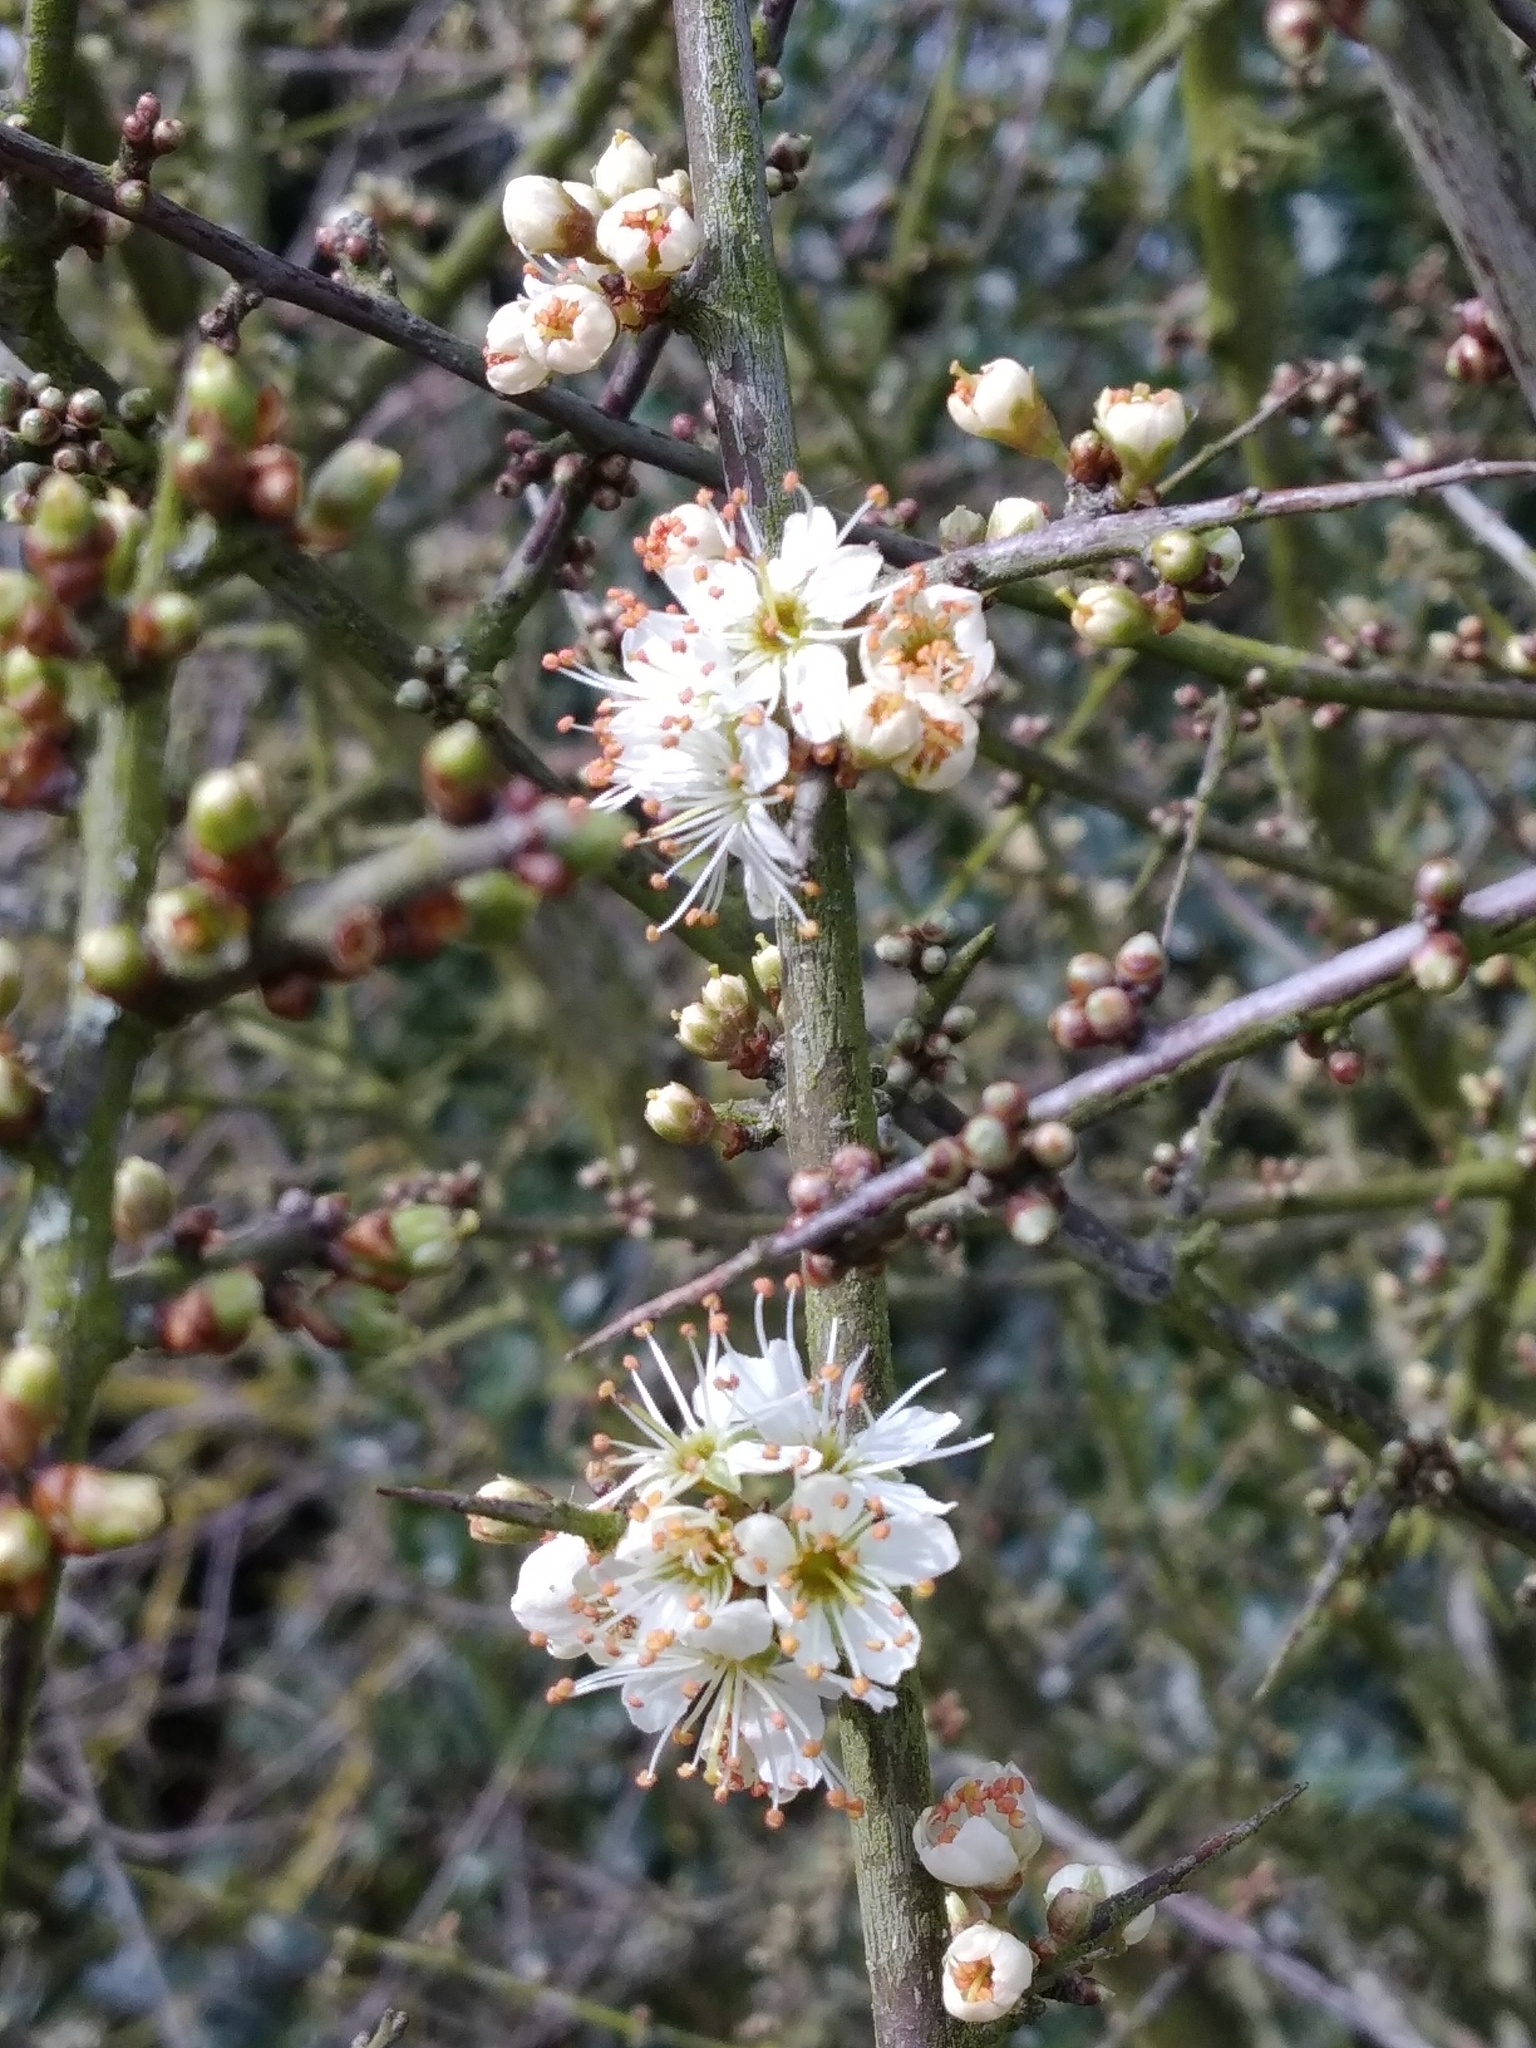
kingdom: Plantae
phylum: Tracheophyta
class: Magnoliopsida
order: Rosales
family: Rosaceae
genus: Prunus
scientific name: Prunus spinosa
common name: Blackthorn
